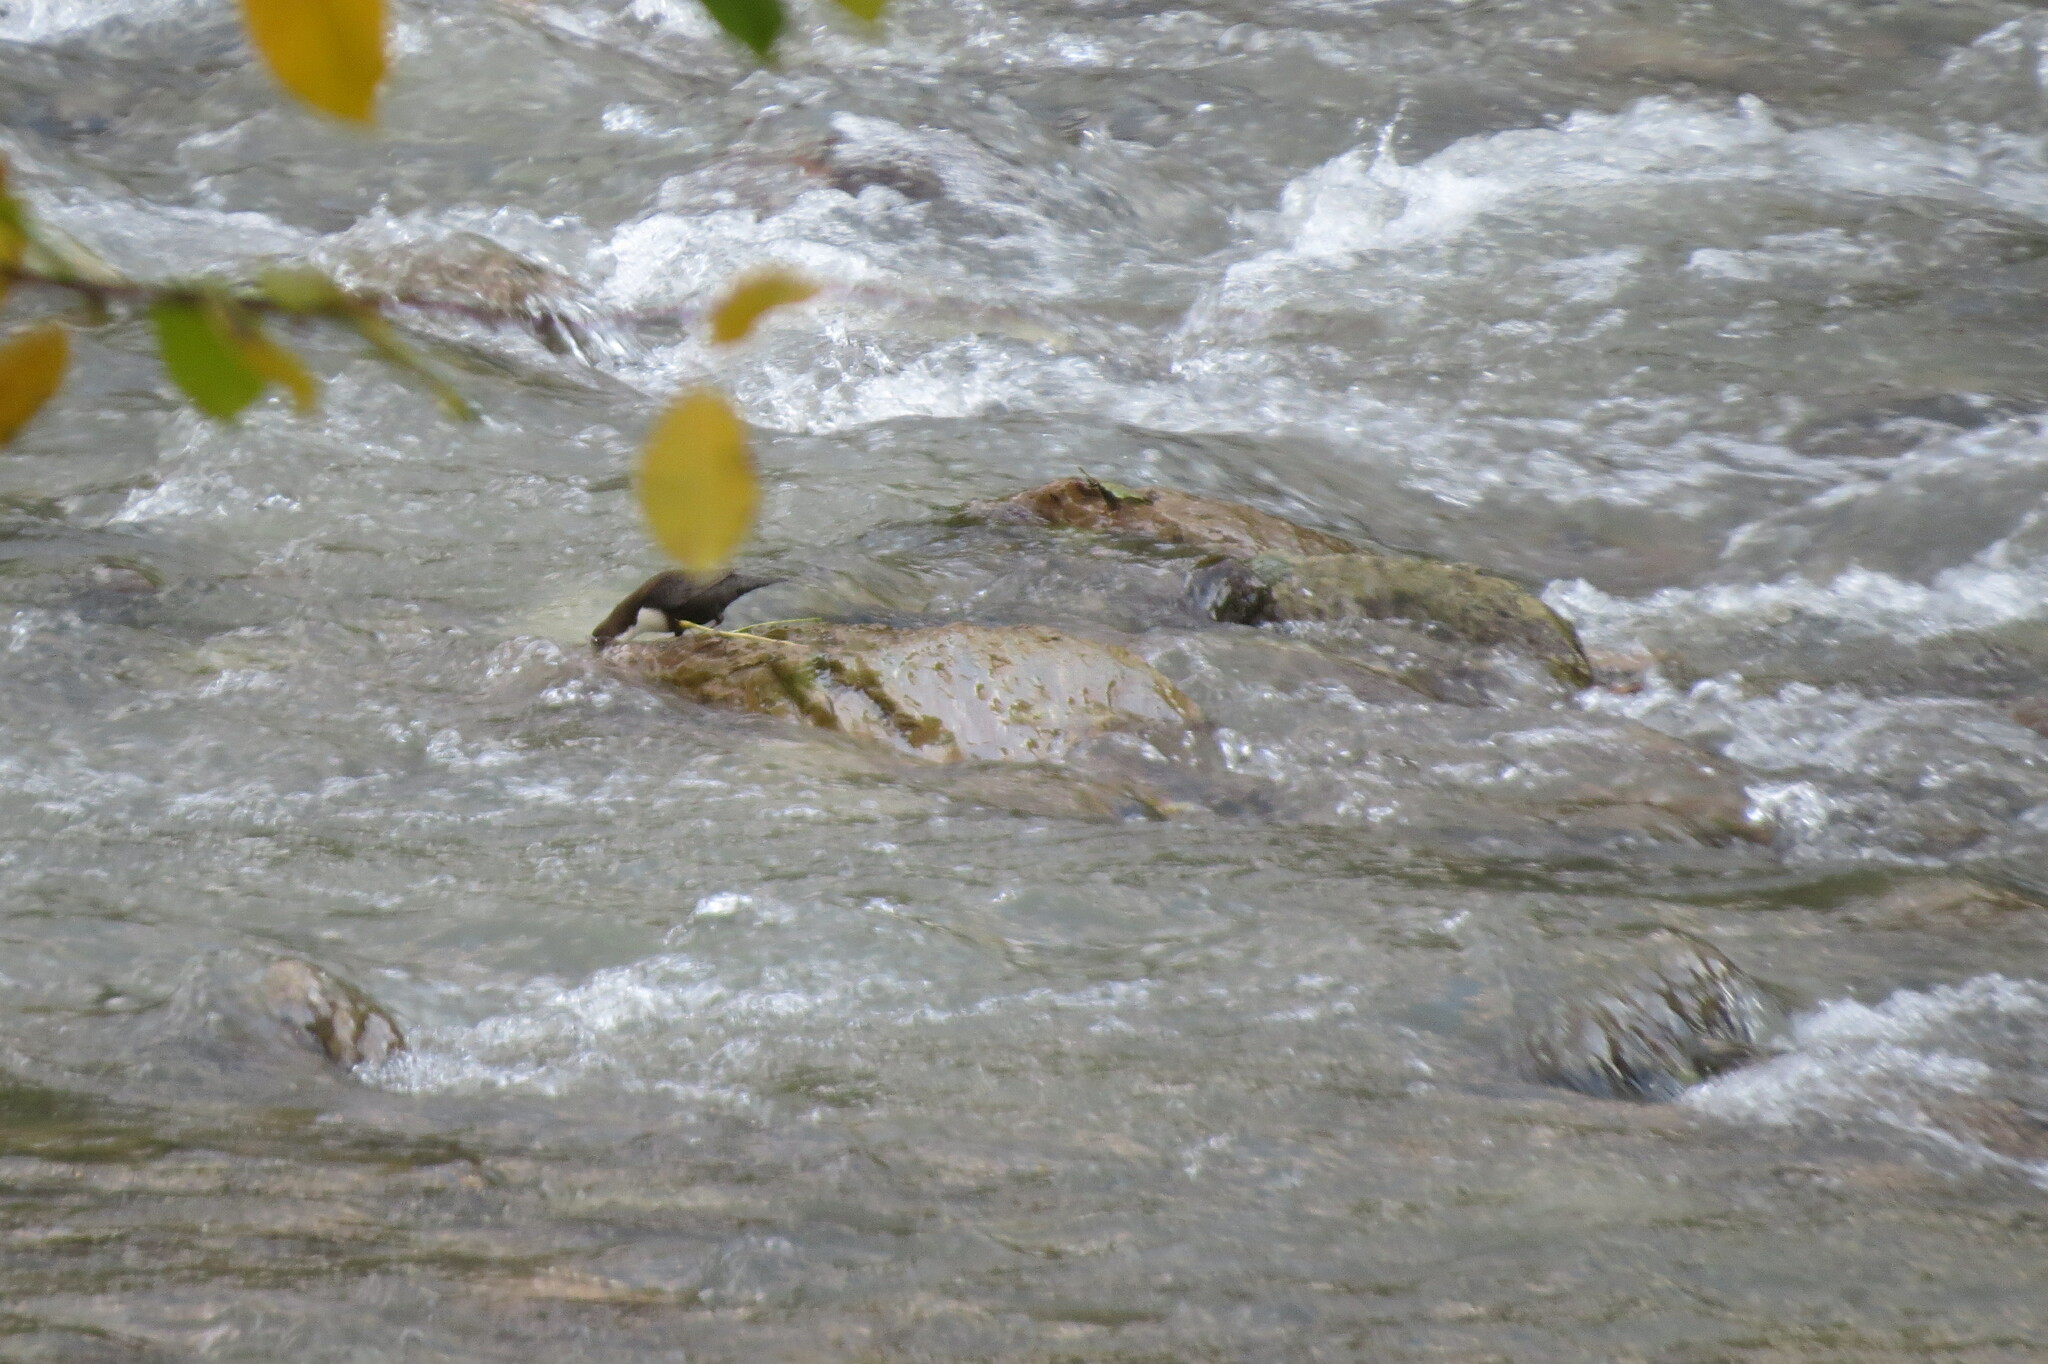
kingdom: Animalia
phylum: Chordata
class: Aves
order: Passeriformes
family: Cinclidae
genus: Cinclus
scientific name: Cinclus cinclus
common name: White-throated dipper
